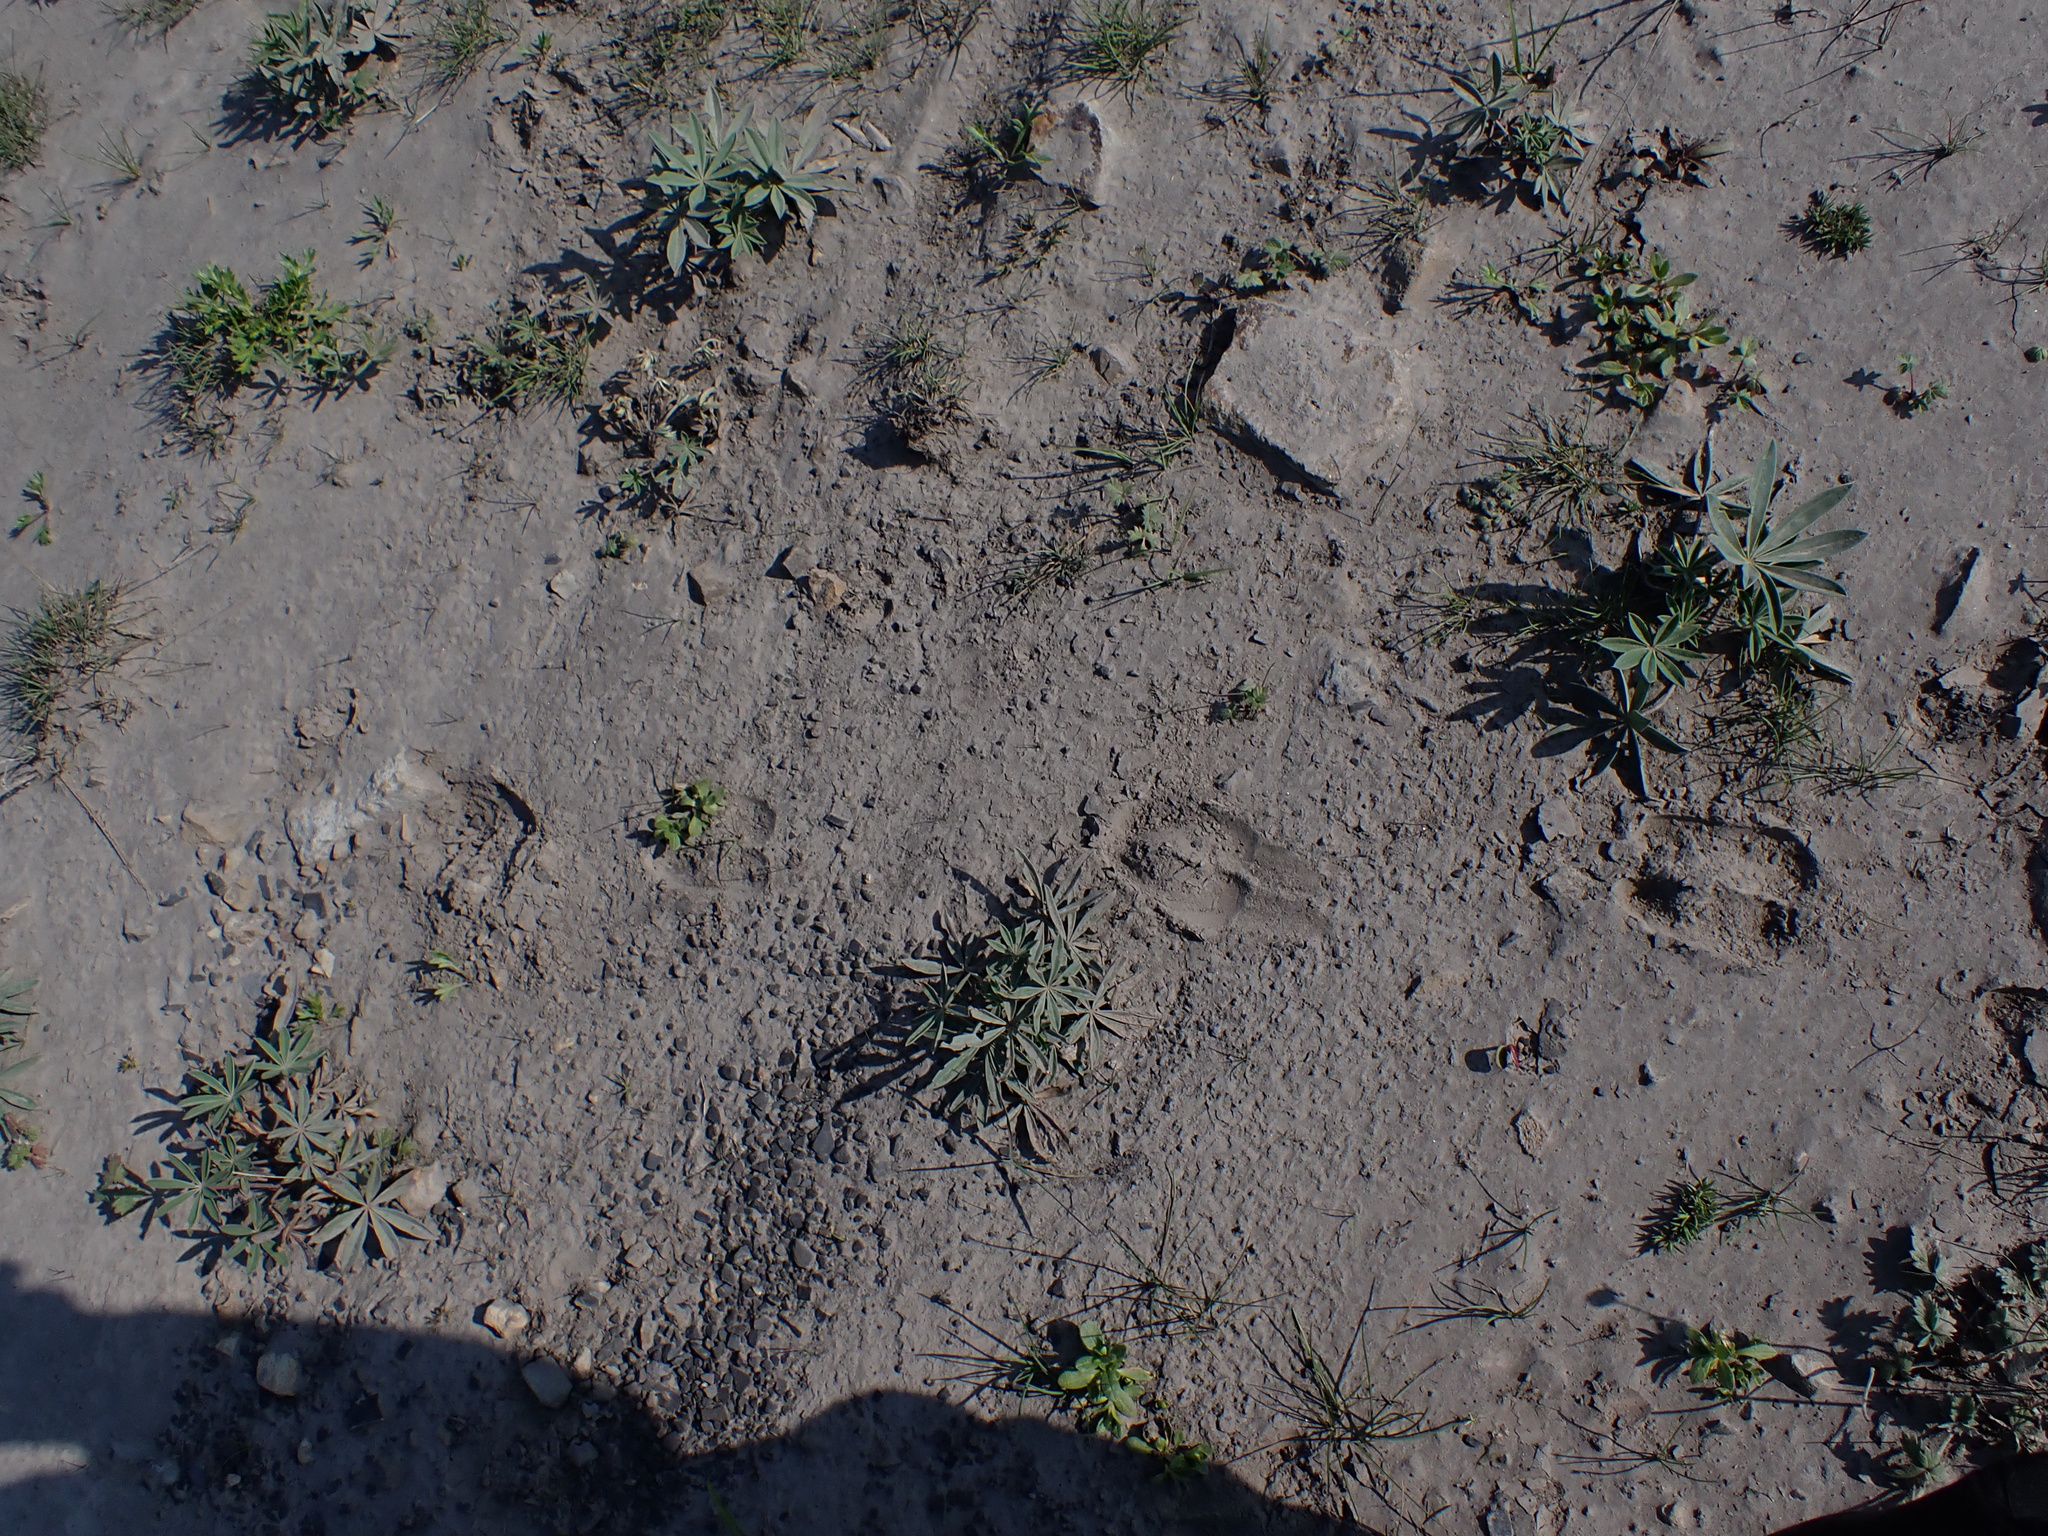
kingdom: Animalia
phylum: Chordata
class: Mammalia
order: Artiodactyla
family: Bovidae
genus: Ovis
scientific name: Ovis dalli
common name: Dall's sheep
